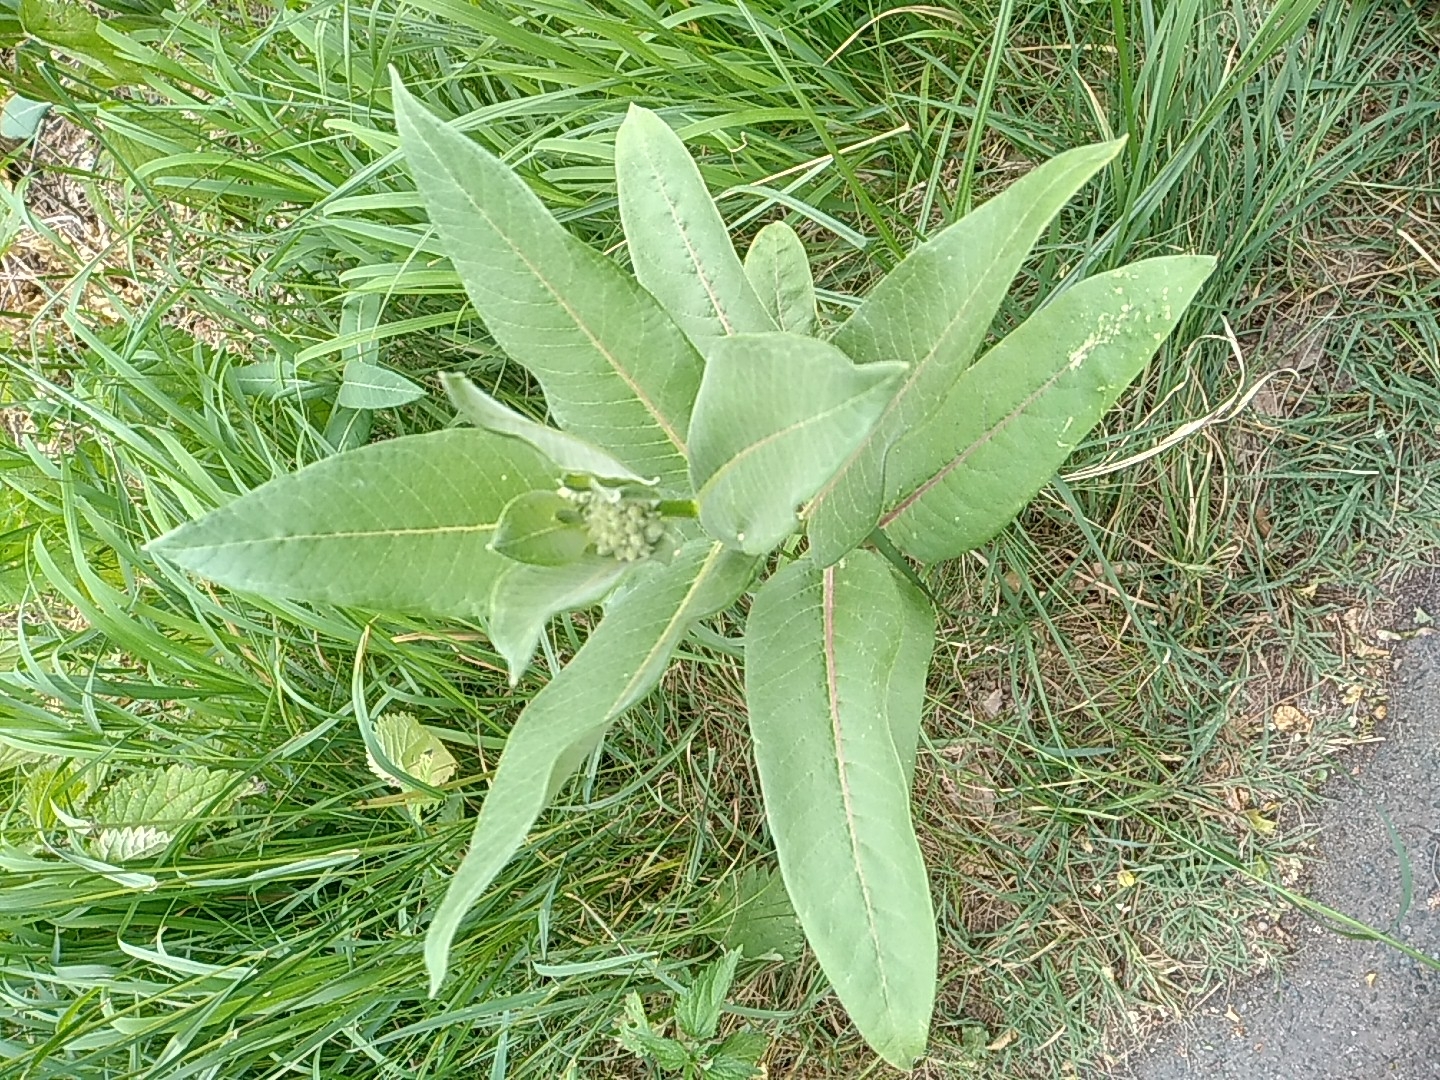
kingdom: Plantae
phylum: Tracheophyta
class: Magnoliopsida
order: Gentianales
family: Apocynaceae
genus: Asclepias
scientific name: Asclepias syriaca
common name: Common milkweed
